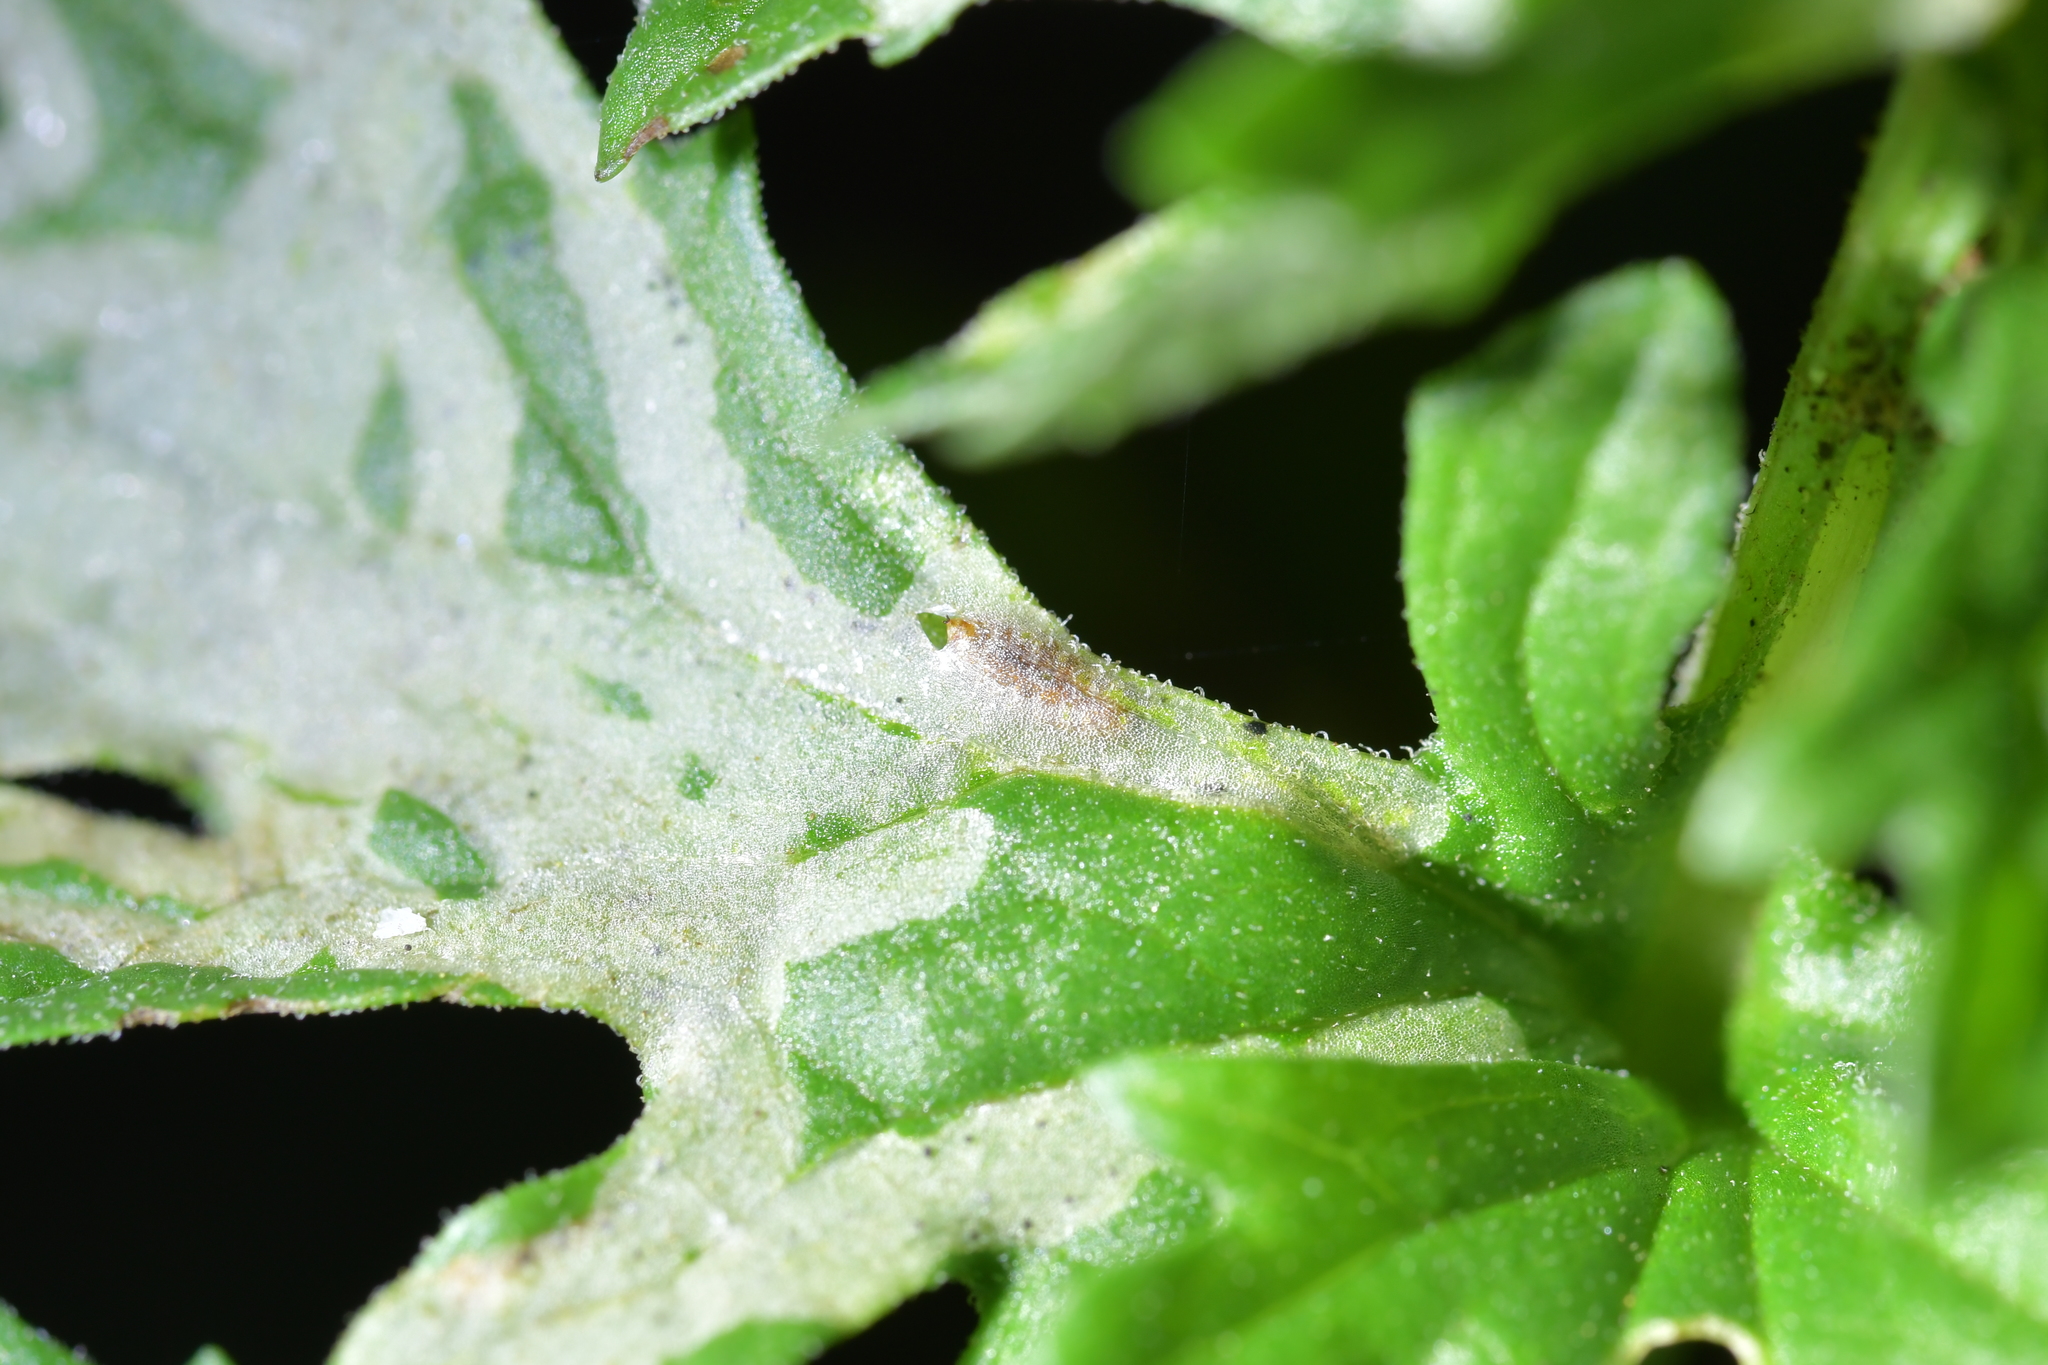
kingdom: Animalia
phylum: Arthropoda
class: Insecta
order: Diptera
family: Agromyzidae
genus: Phytomyza
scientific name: Phytomyza syngenesiae
